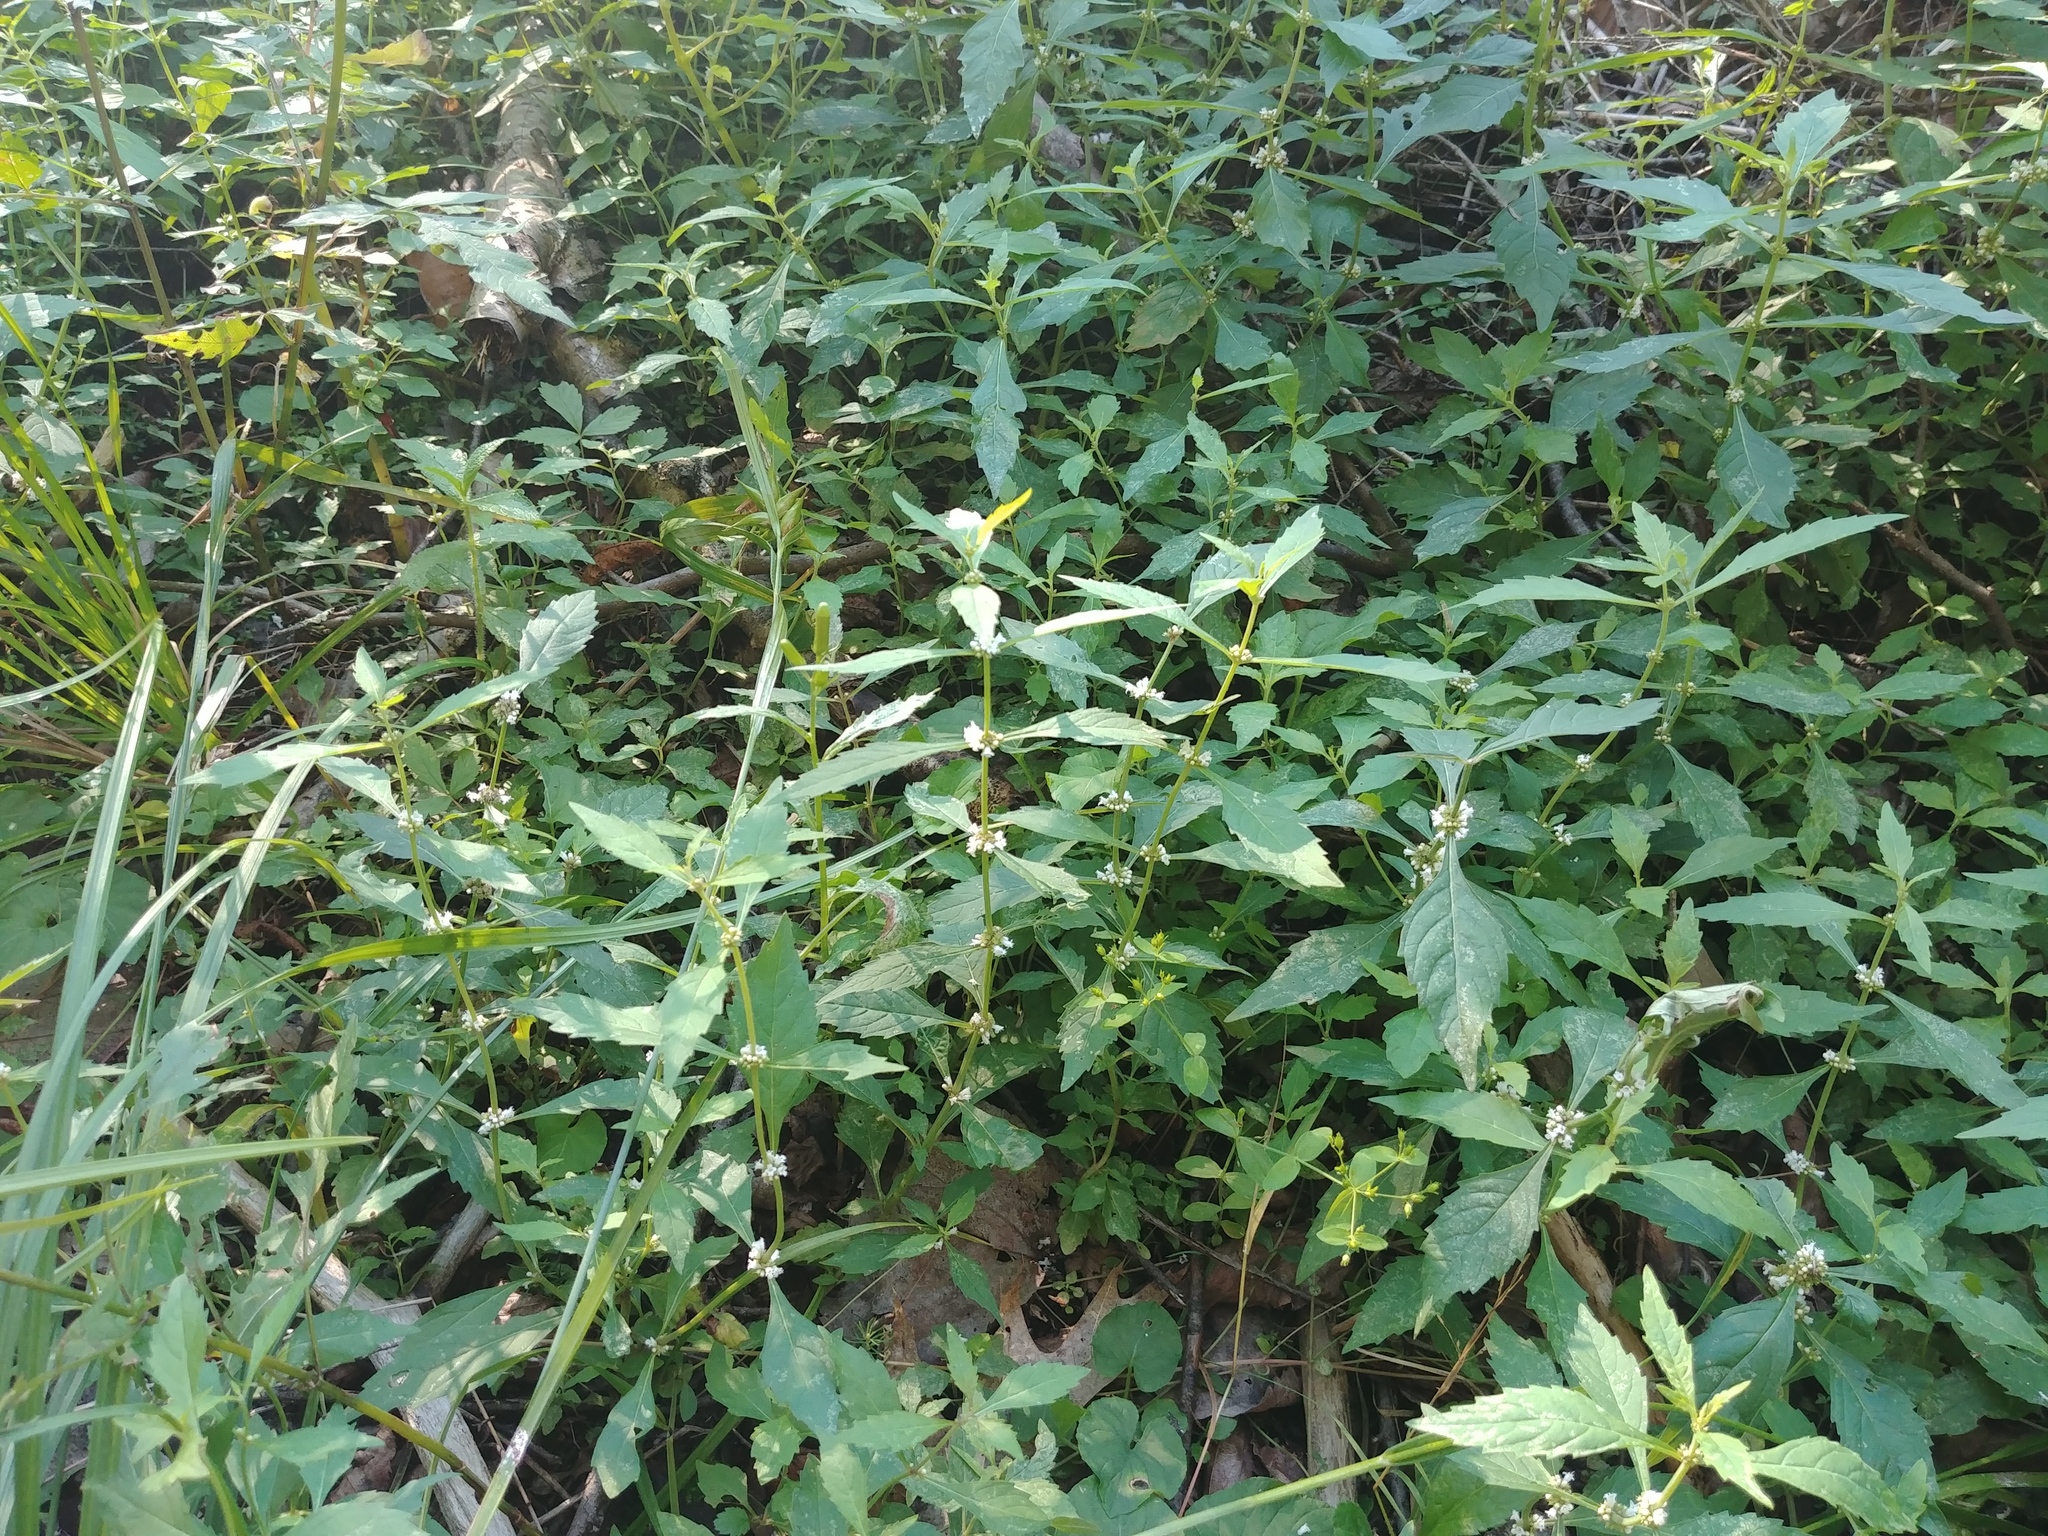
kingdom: Plantae
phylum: Tracheophyta
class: Magnoliopsida
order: Lamiales
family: Lamiaceae
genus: Lycopus
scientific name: Lycopus uniflorus
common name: Northern bugleweed
